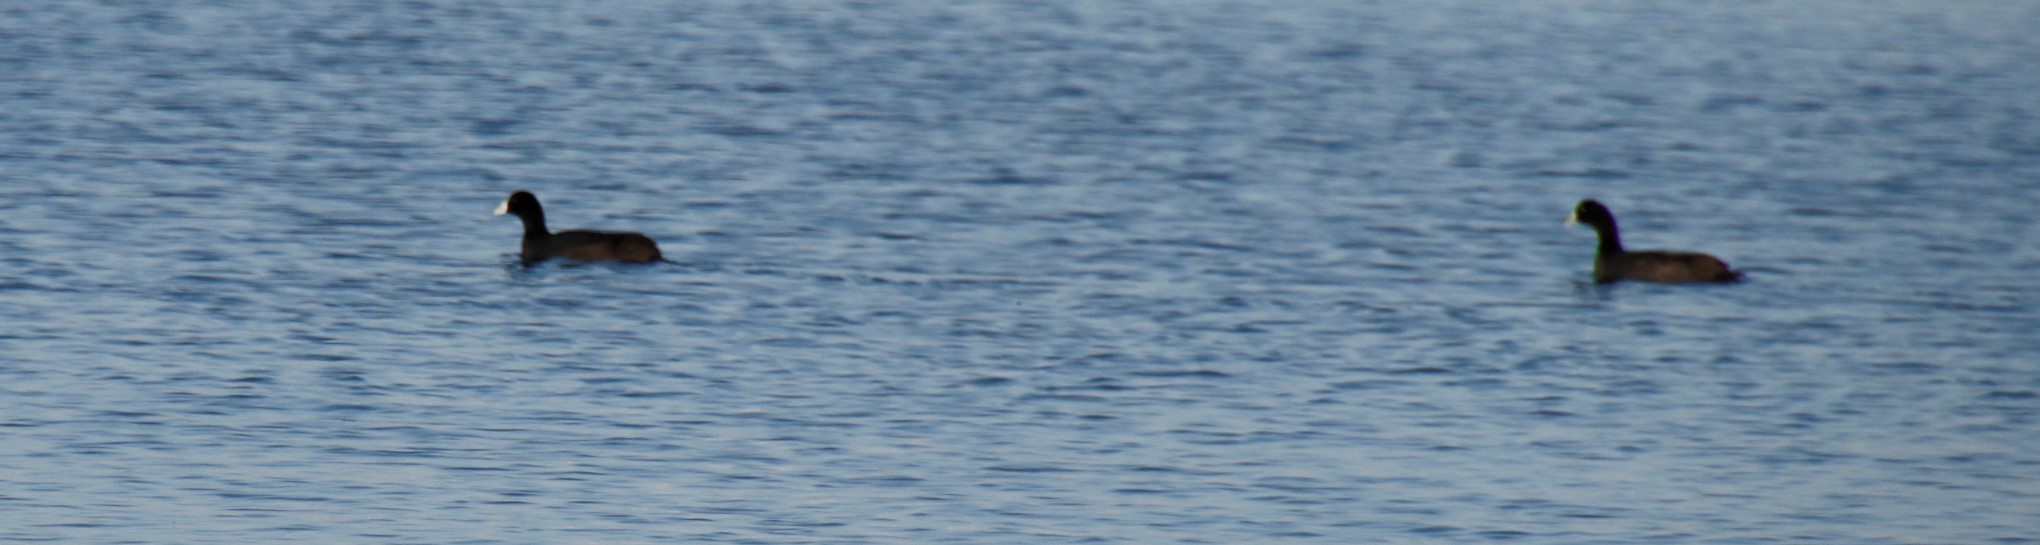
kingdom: Animalia
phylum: Chordata
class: Aves
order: Gruiformes
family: Rallidae
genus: Fulica
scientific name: Fulica cristata
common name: Red-knobbed coot
